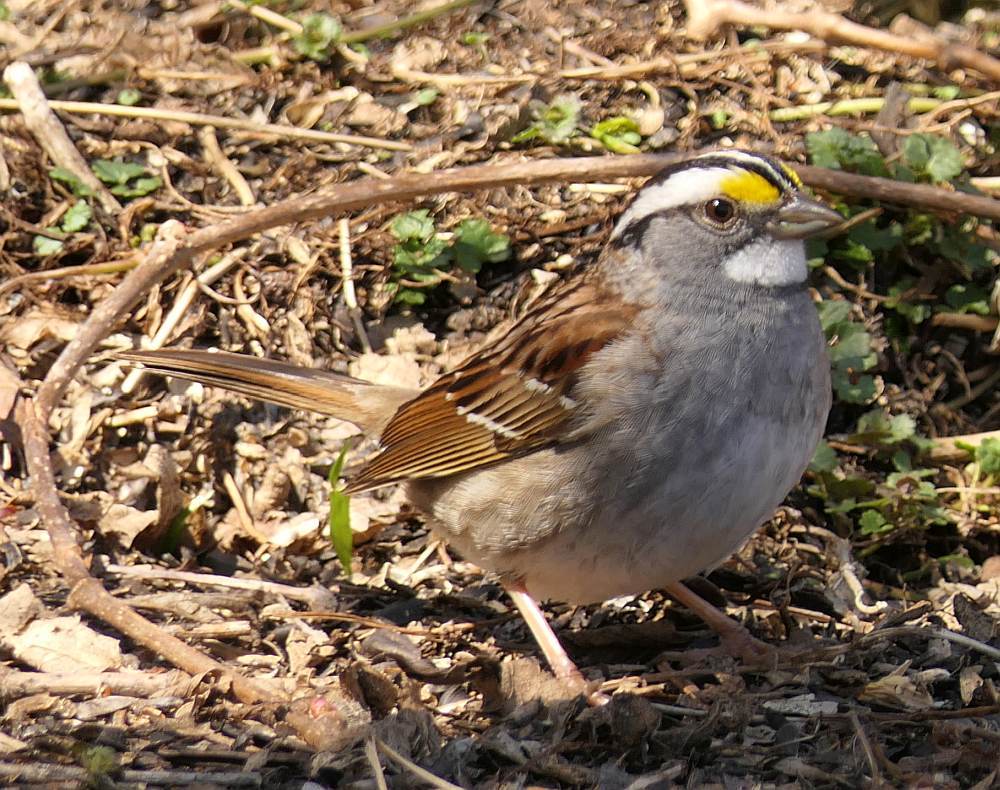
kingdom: Animalia
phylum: Chordata
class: Aves
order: Passeriformes
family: Passerellidae
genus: Zonotrichia
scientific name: Zonotrichia albicollis
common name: White-throated sparrow
